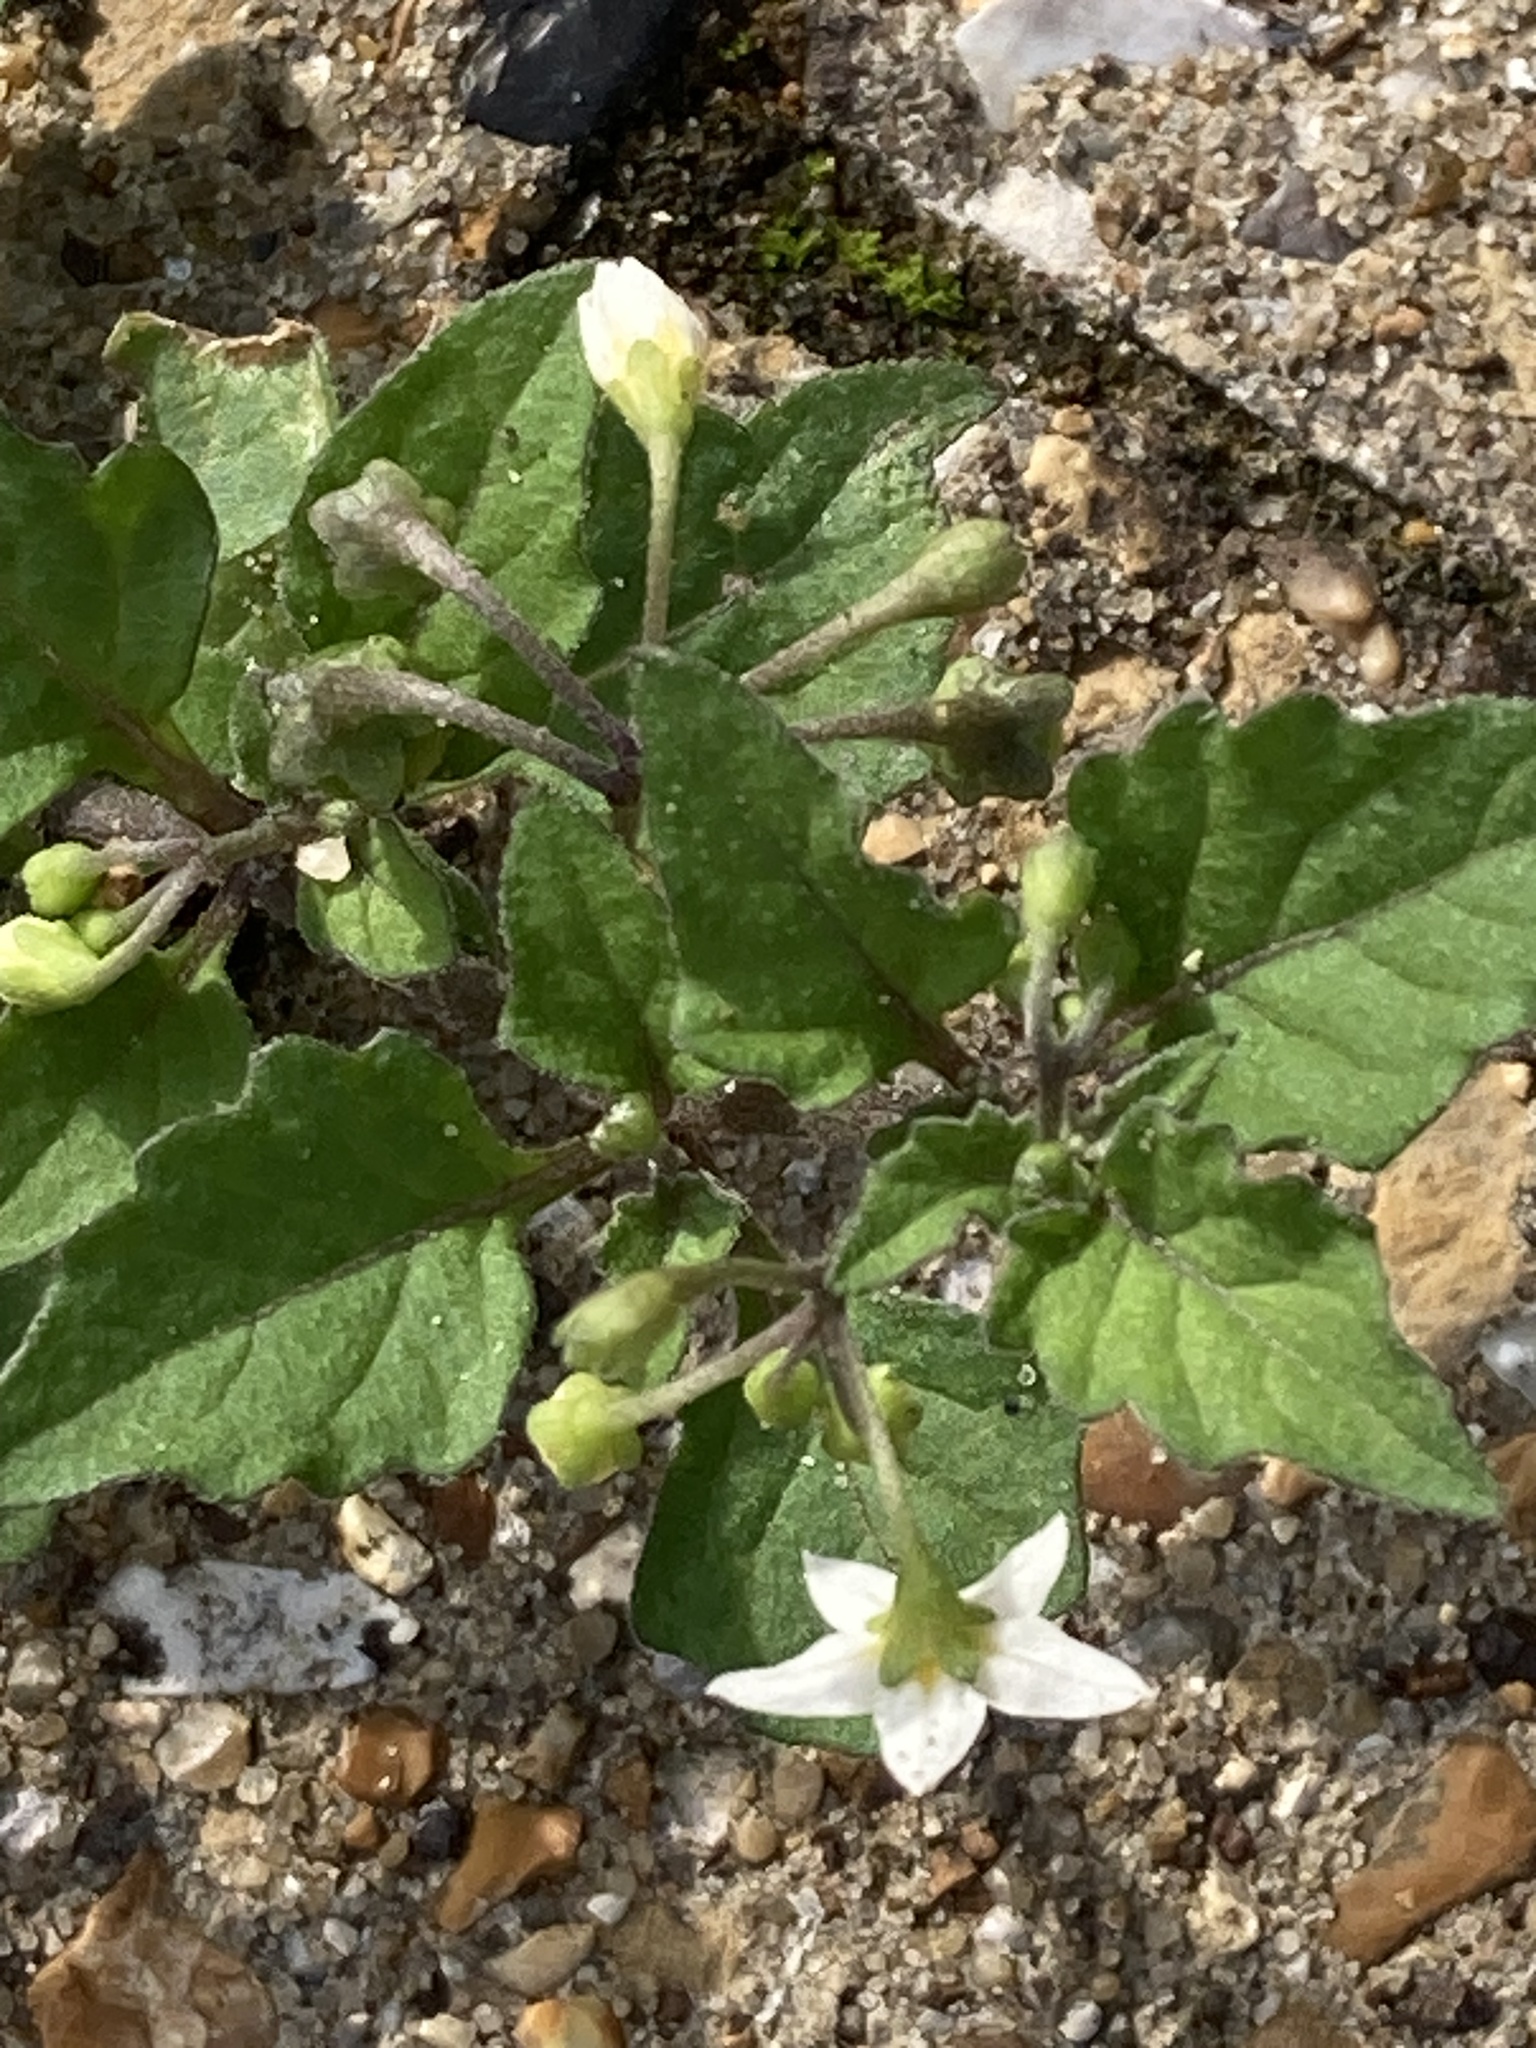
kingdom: Plantae
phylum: Tracheophyta
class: Magnoliopsida
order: Solanales
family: Solanaceae
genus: Solanum
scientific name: Solanum nigrum
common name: Black nightshade
